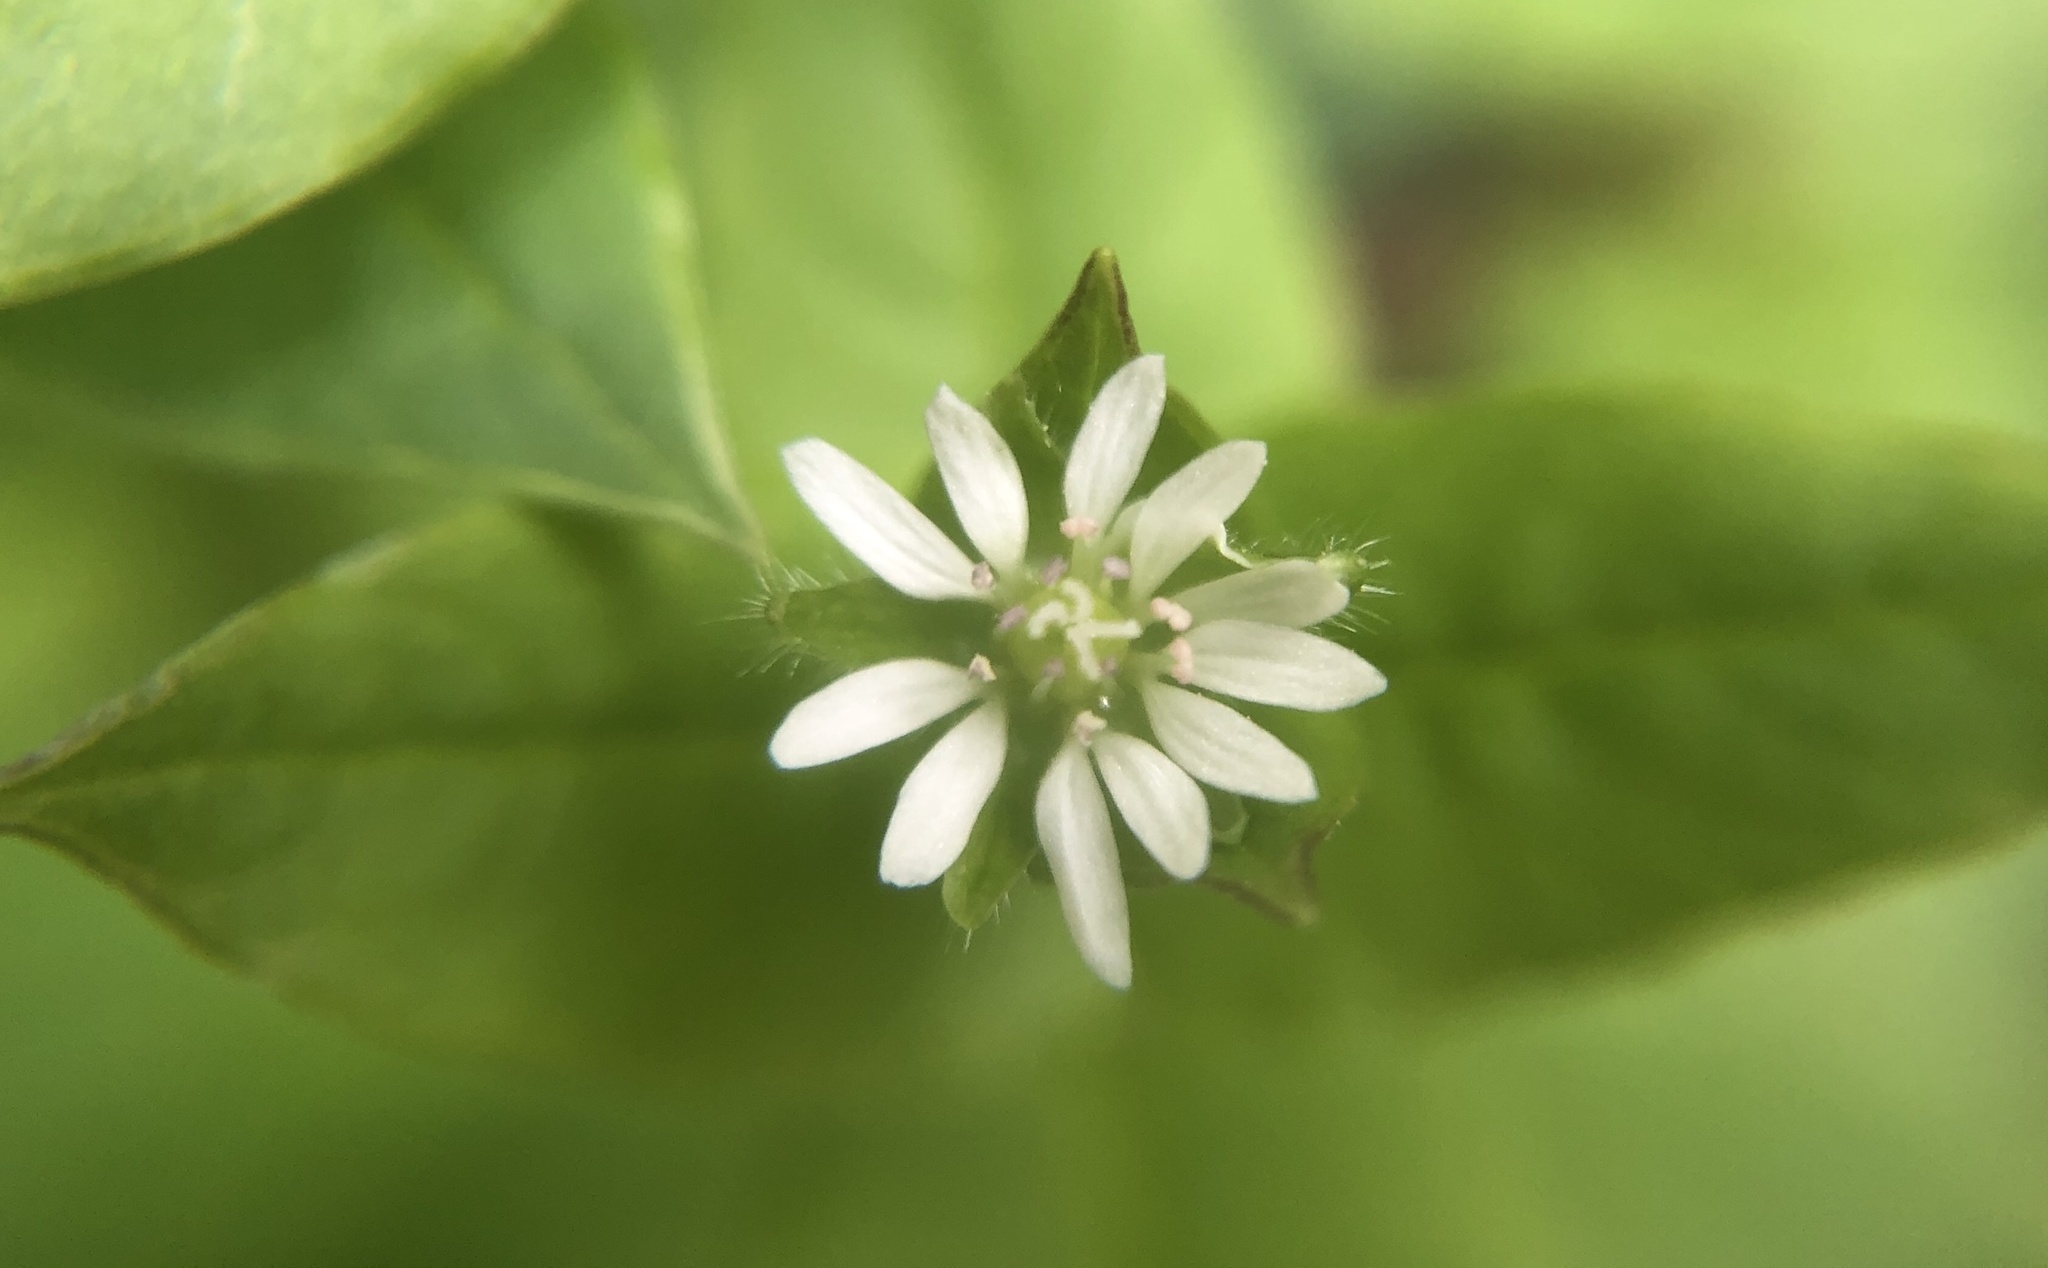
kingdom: Plantae
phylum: Tracheophyta
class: Magnoliopsida
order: Caryophyllales
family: Caryophyllaceae
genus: Stellaria
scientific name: Stellaria aquatica
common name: Water chickweed
